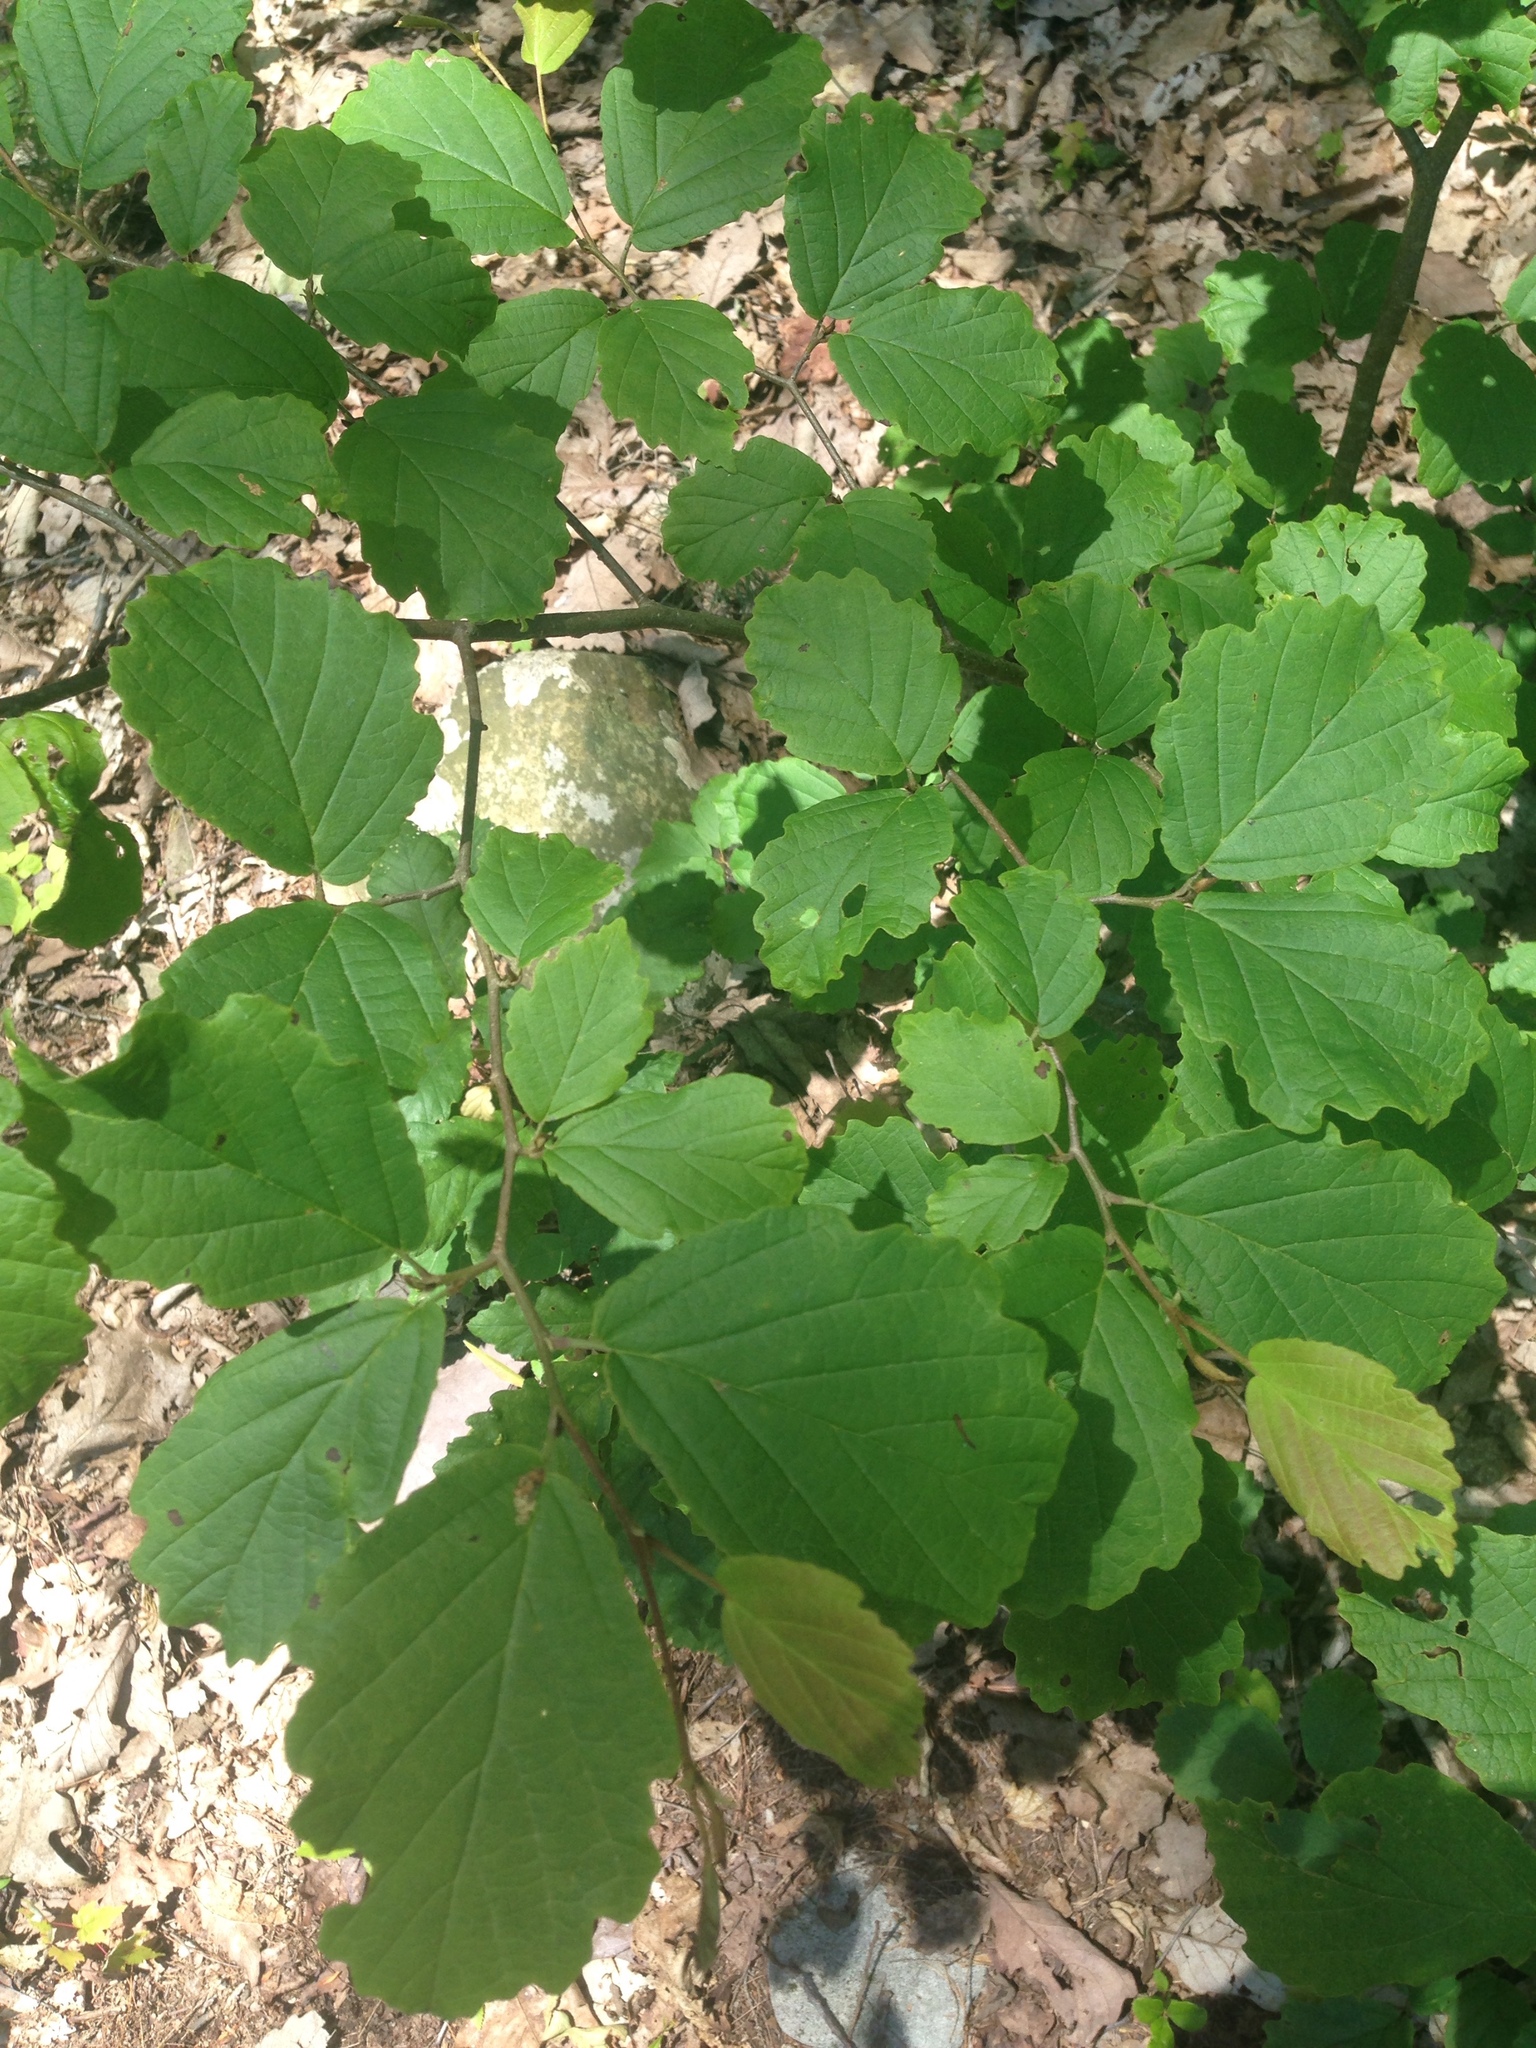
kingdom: Plantae
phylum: Tracheophyta
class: Magnoliopsida
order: Saxifragales
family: Hamamelidaceae
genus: Hamamelis
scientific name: Hamamelis virginiana
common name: Witch-hazel
